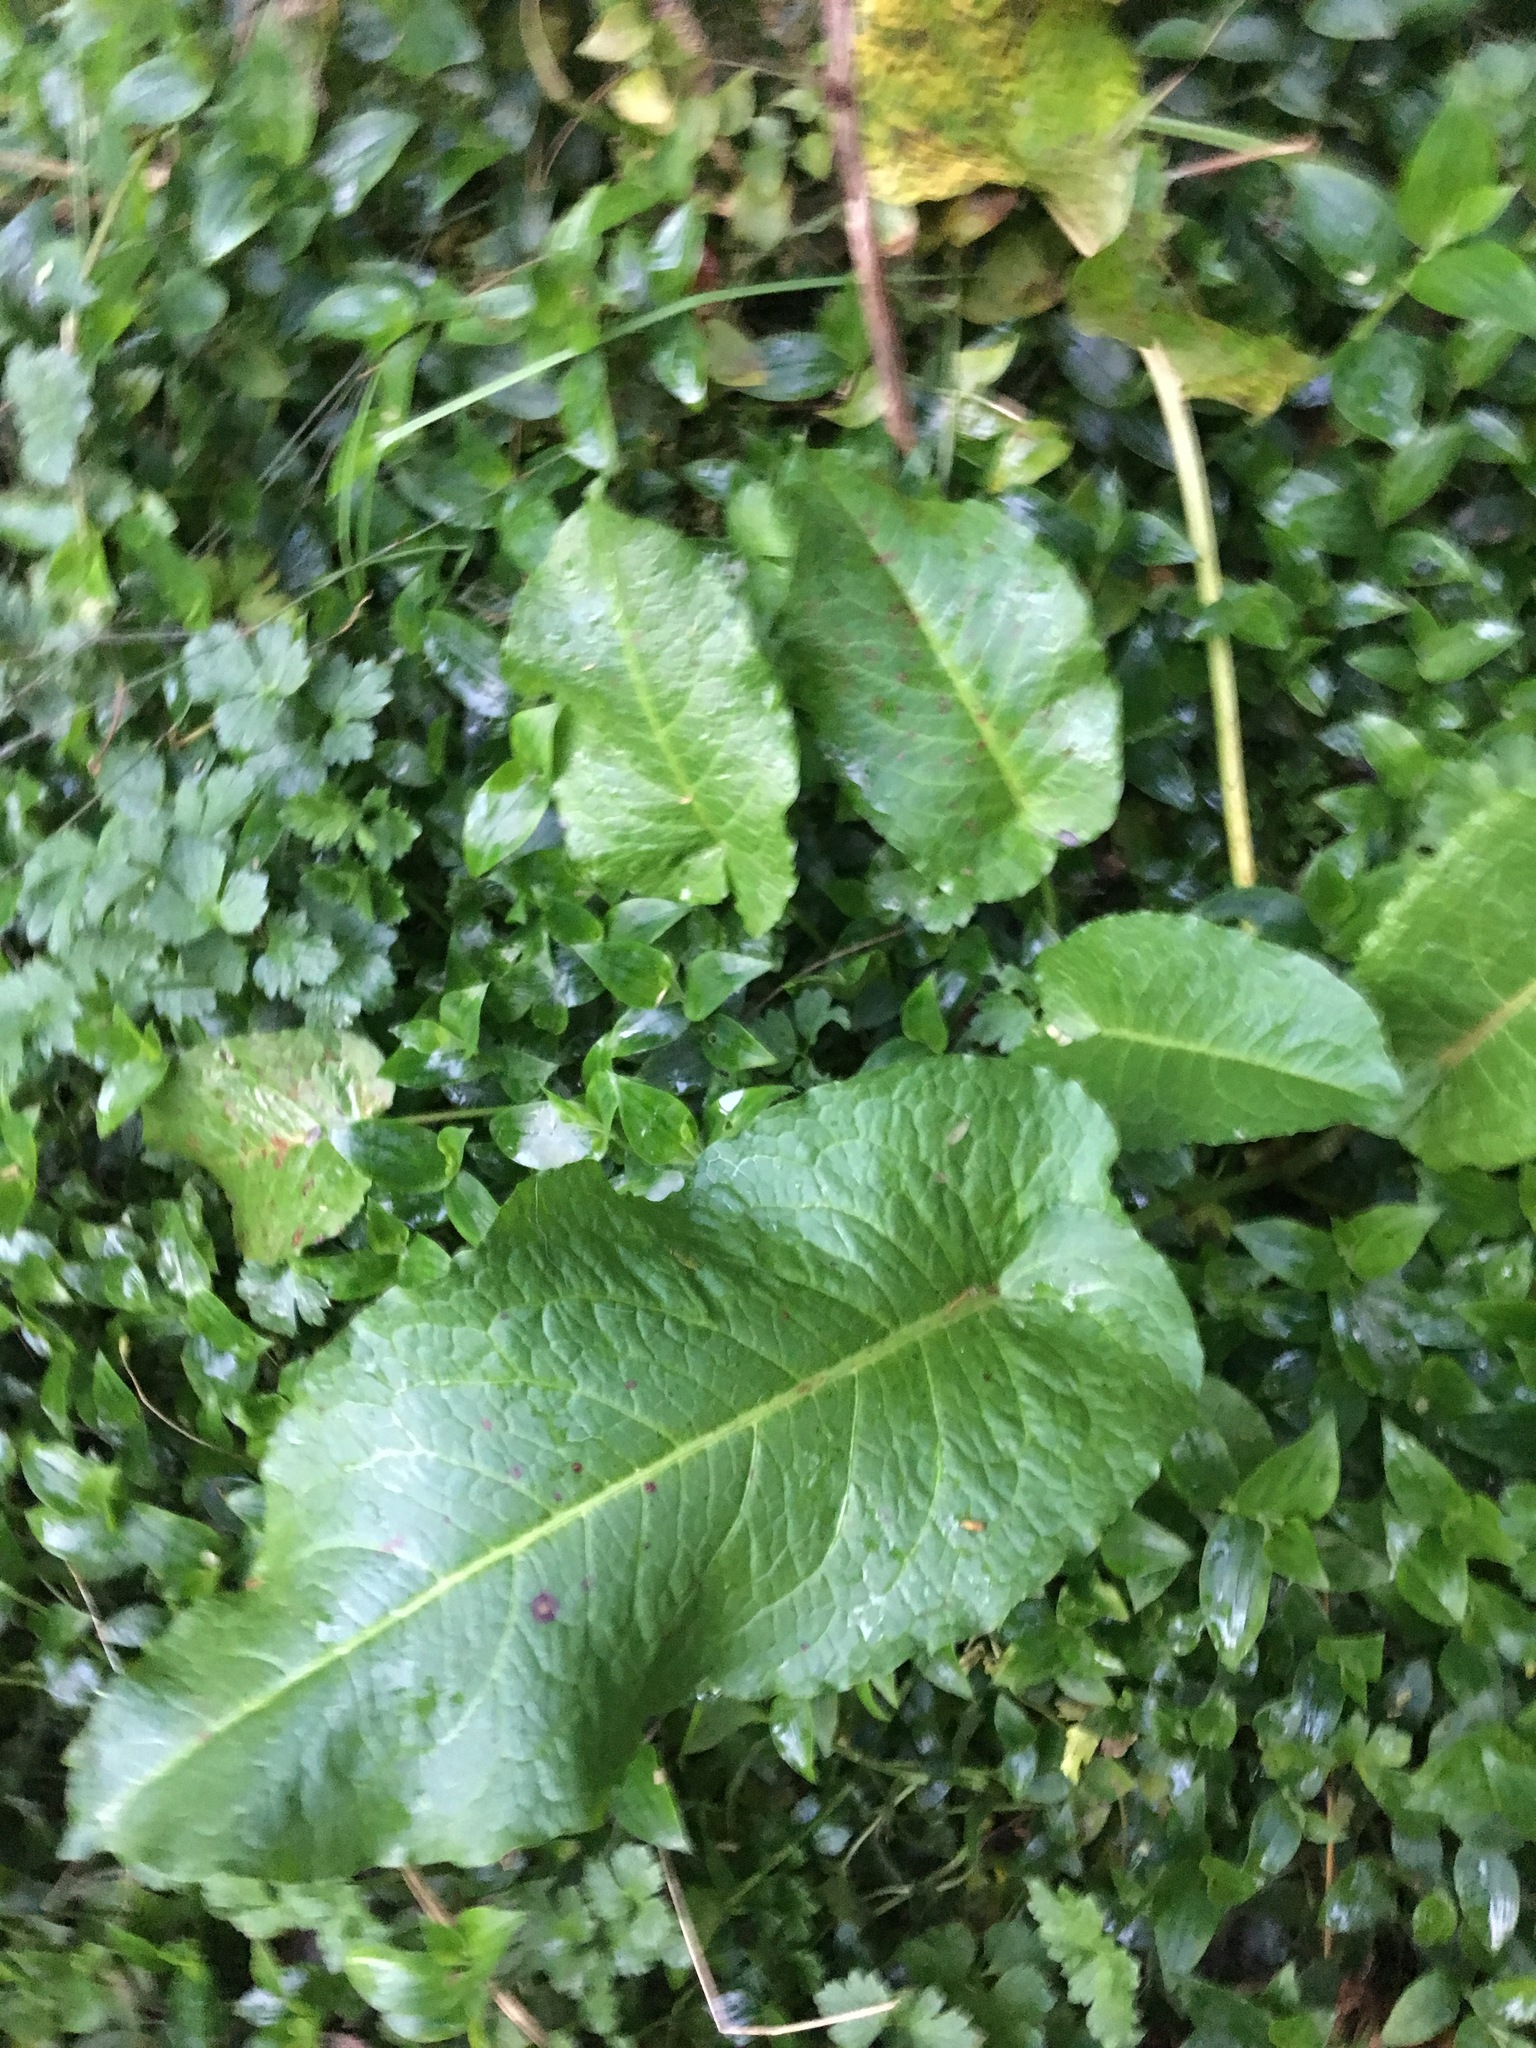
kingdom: Plantae
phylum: Tracheophyta
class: Magnoliopsida
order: Caryophyllales
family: Polygonaceae
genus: Rumex
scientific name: Rumex obtusifolius
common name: Bitter dock
